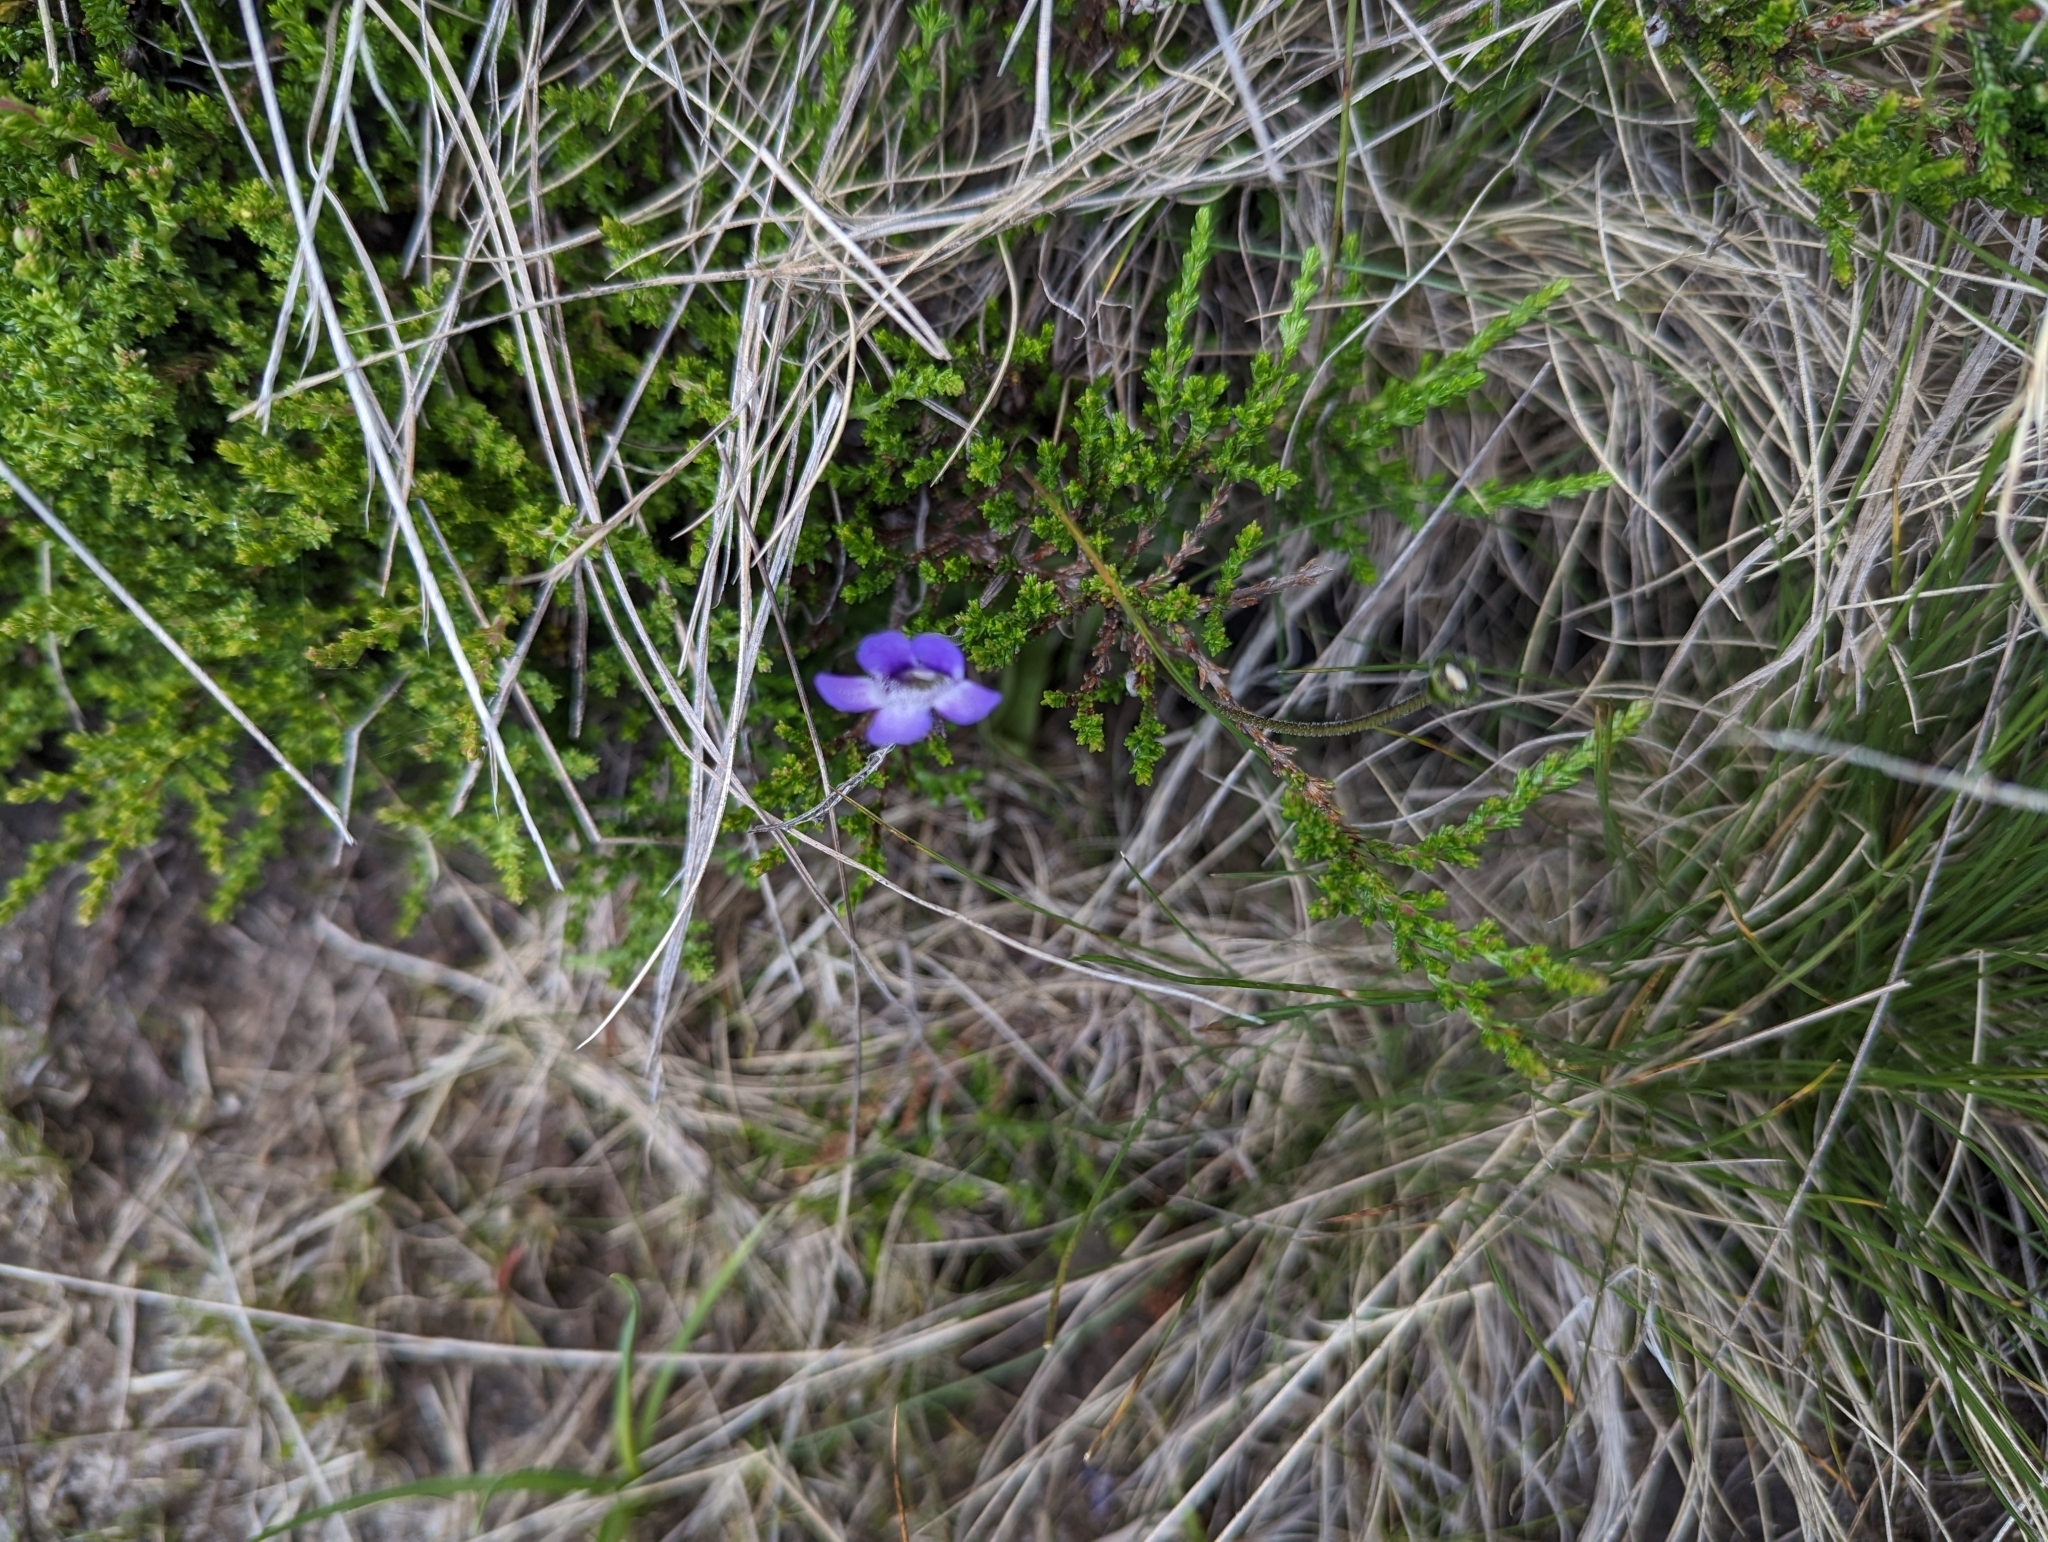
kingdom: Plantae
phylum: Tracheophyta
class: Magnoliopsida
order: Lamiales
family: Lentibulariaceae
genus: Pinguicula
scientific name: Pinguicula vulgaris
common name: Common butterwort
